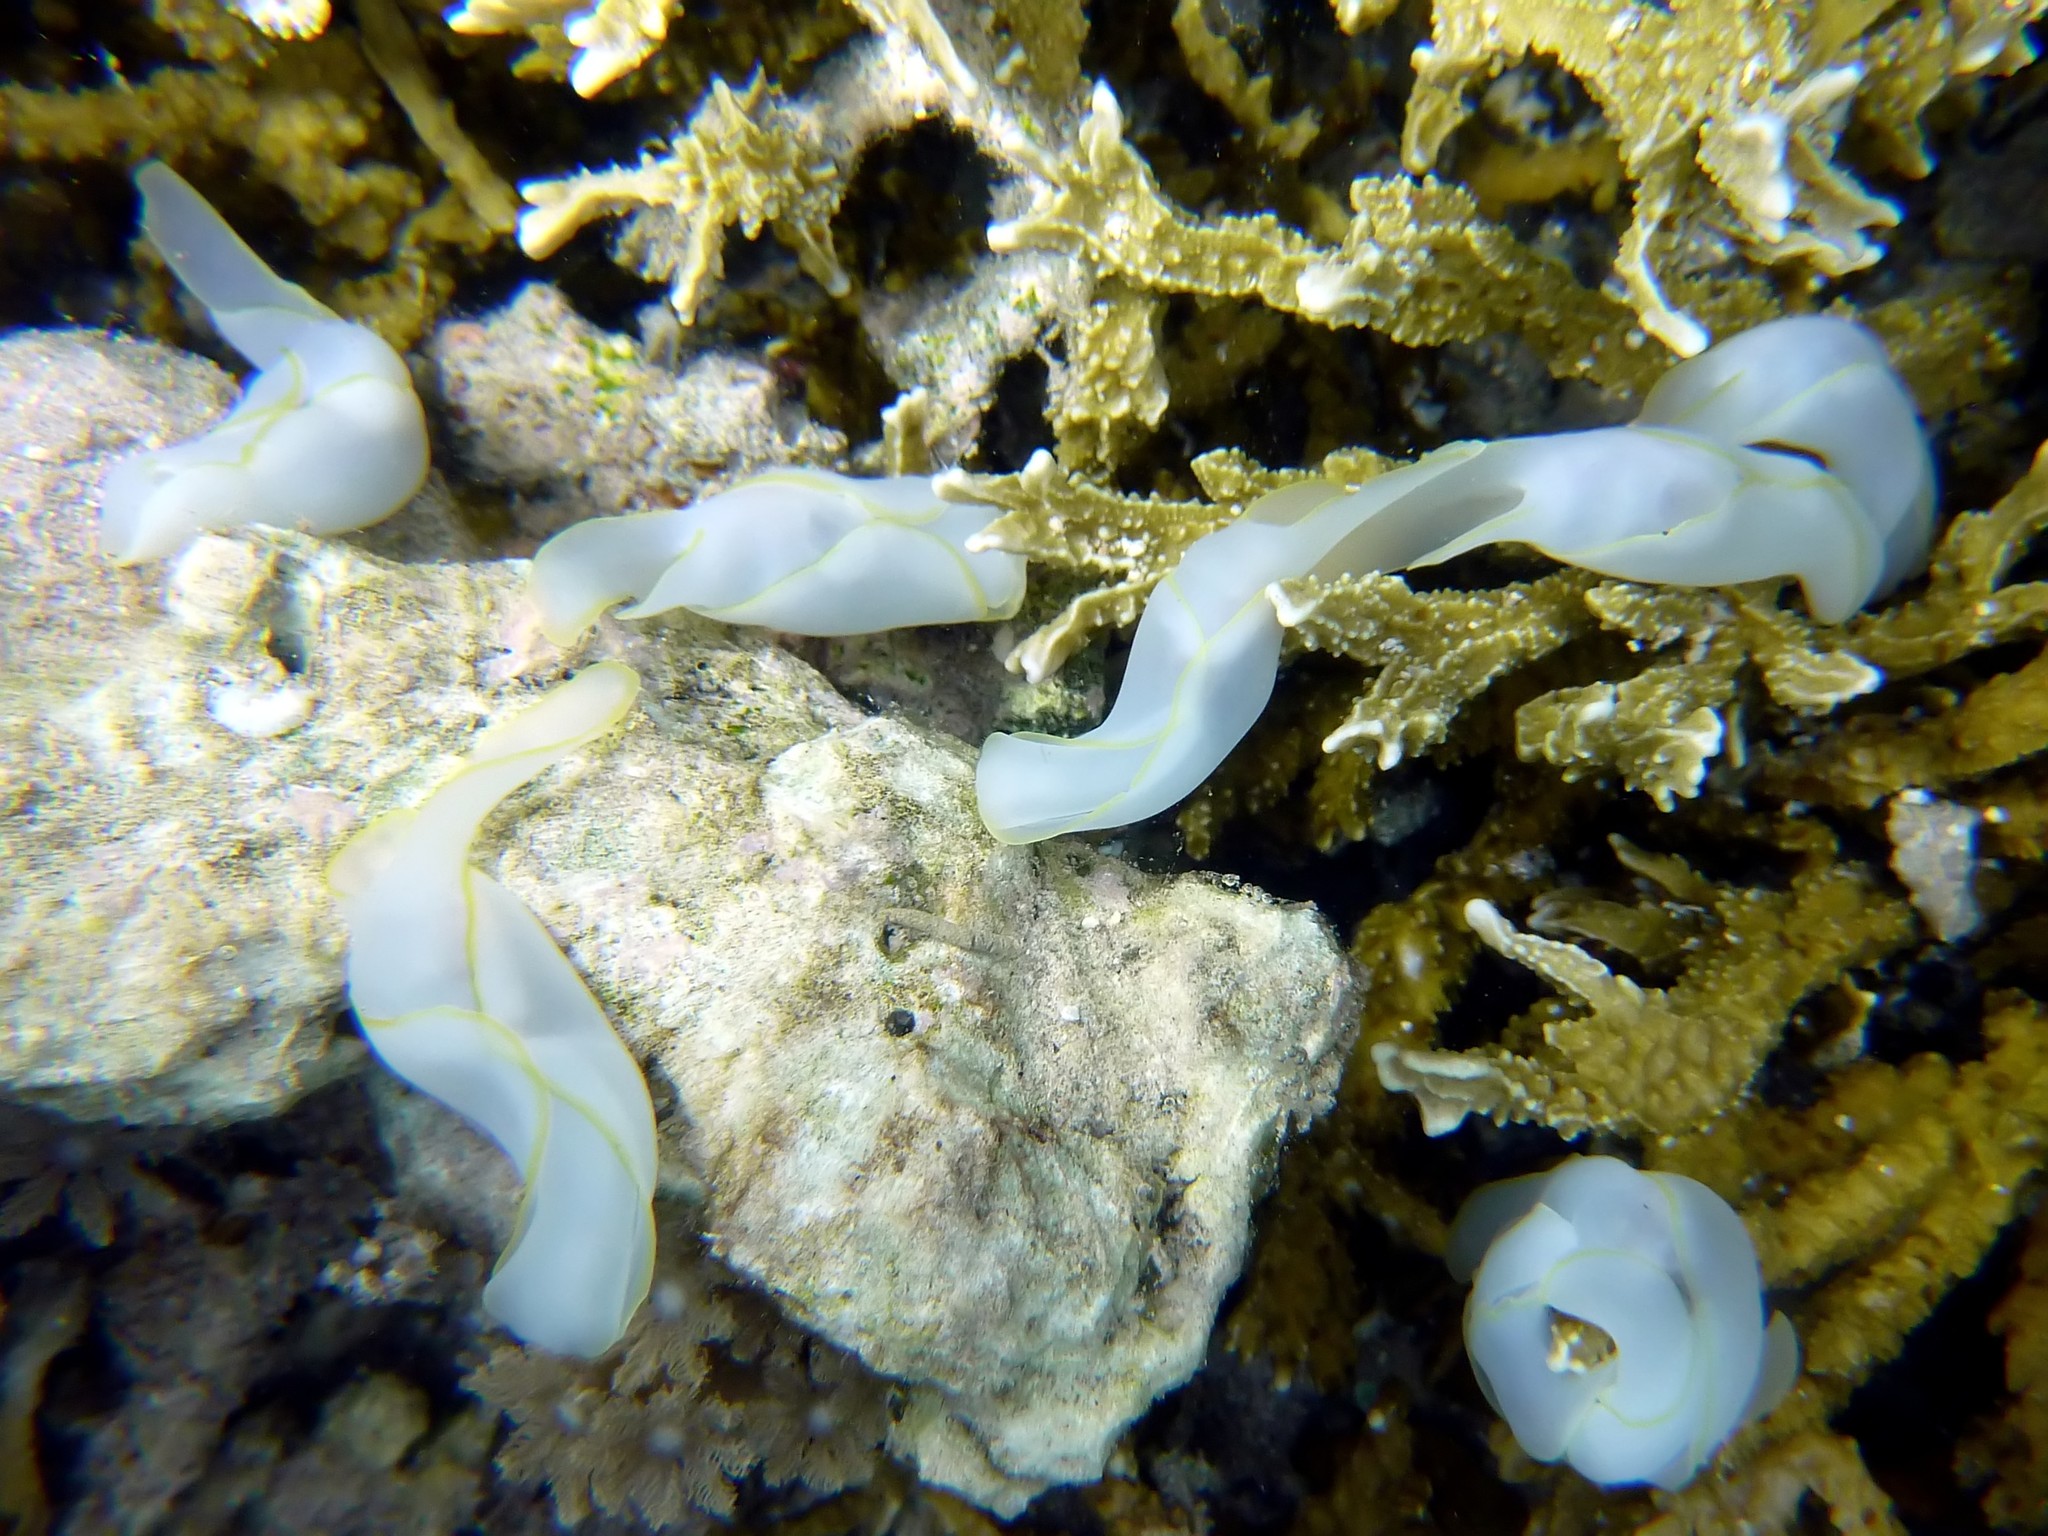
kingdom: Animalia
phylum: Mollusca
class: Gastropoda
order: Cephalaspidea
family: Aglajidae
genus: Chelidonura
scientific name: Chelidonura electra
